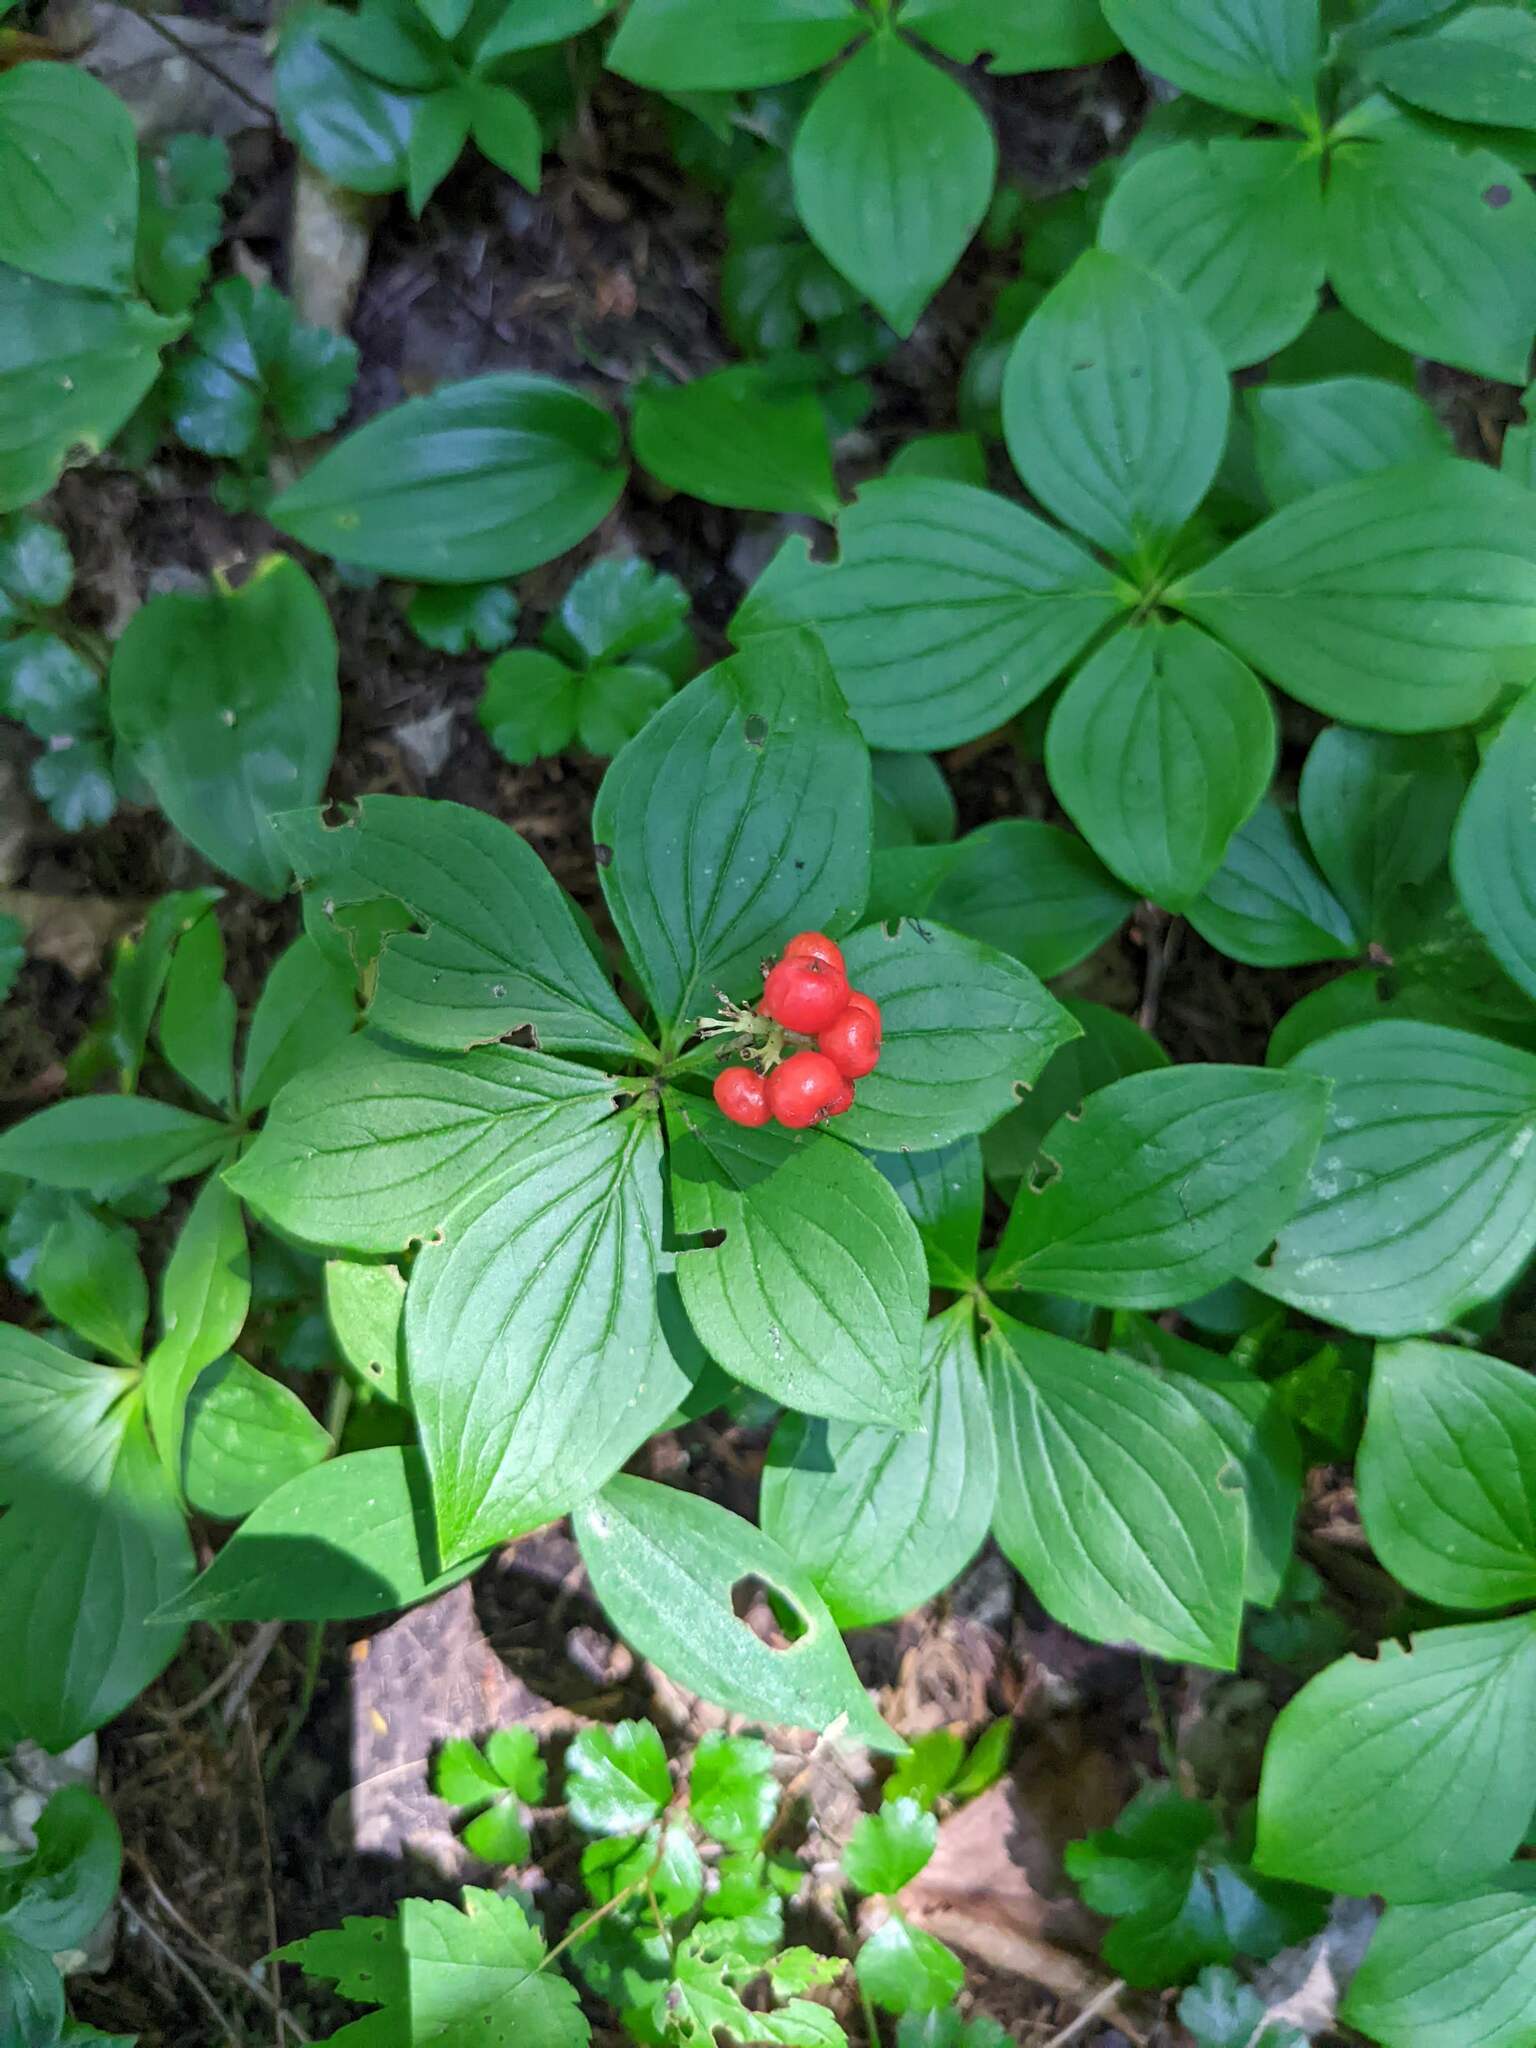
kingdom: Plantae
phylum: Tracheophyta
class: Magnoliopsida
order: Cornales
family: Cornaceae
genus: Cornus
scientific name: Cornus canadensis
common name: Creeping dogwood
